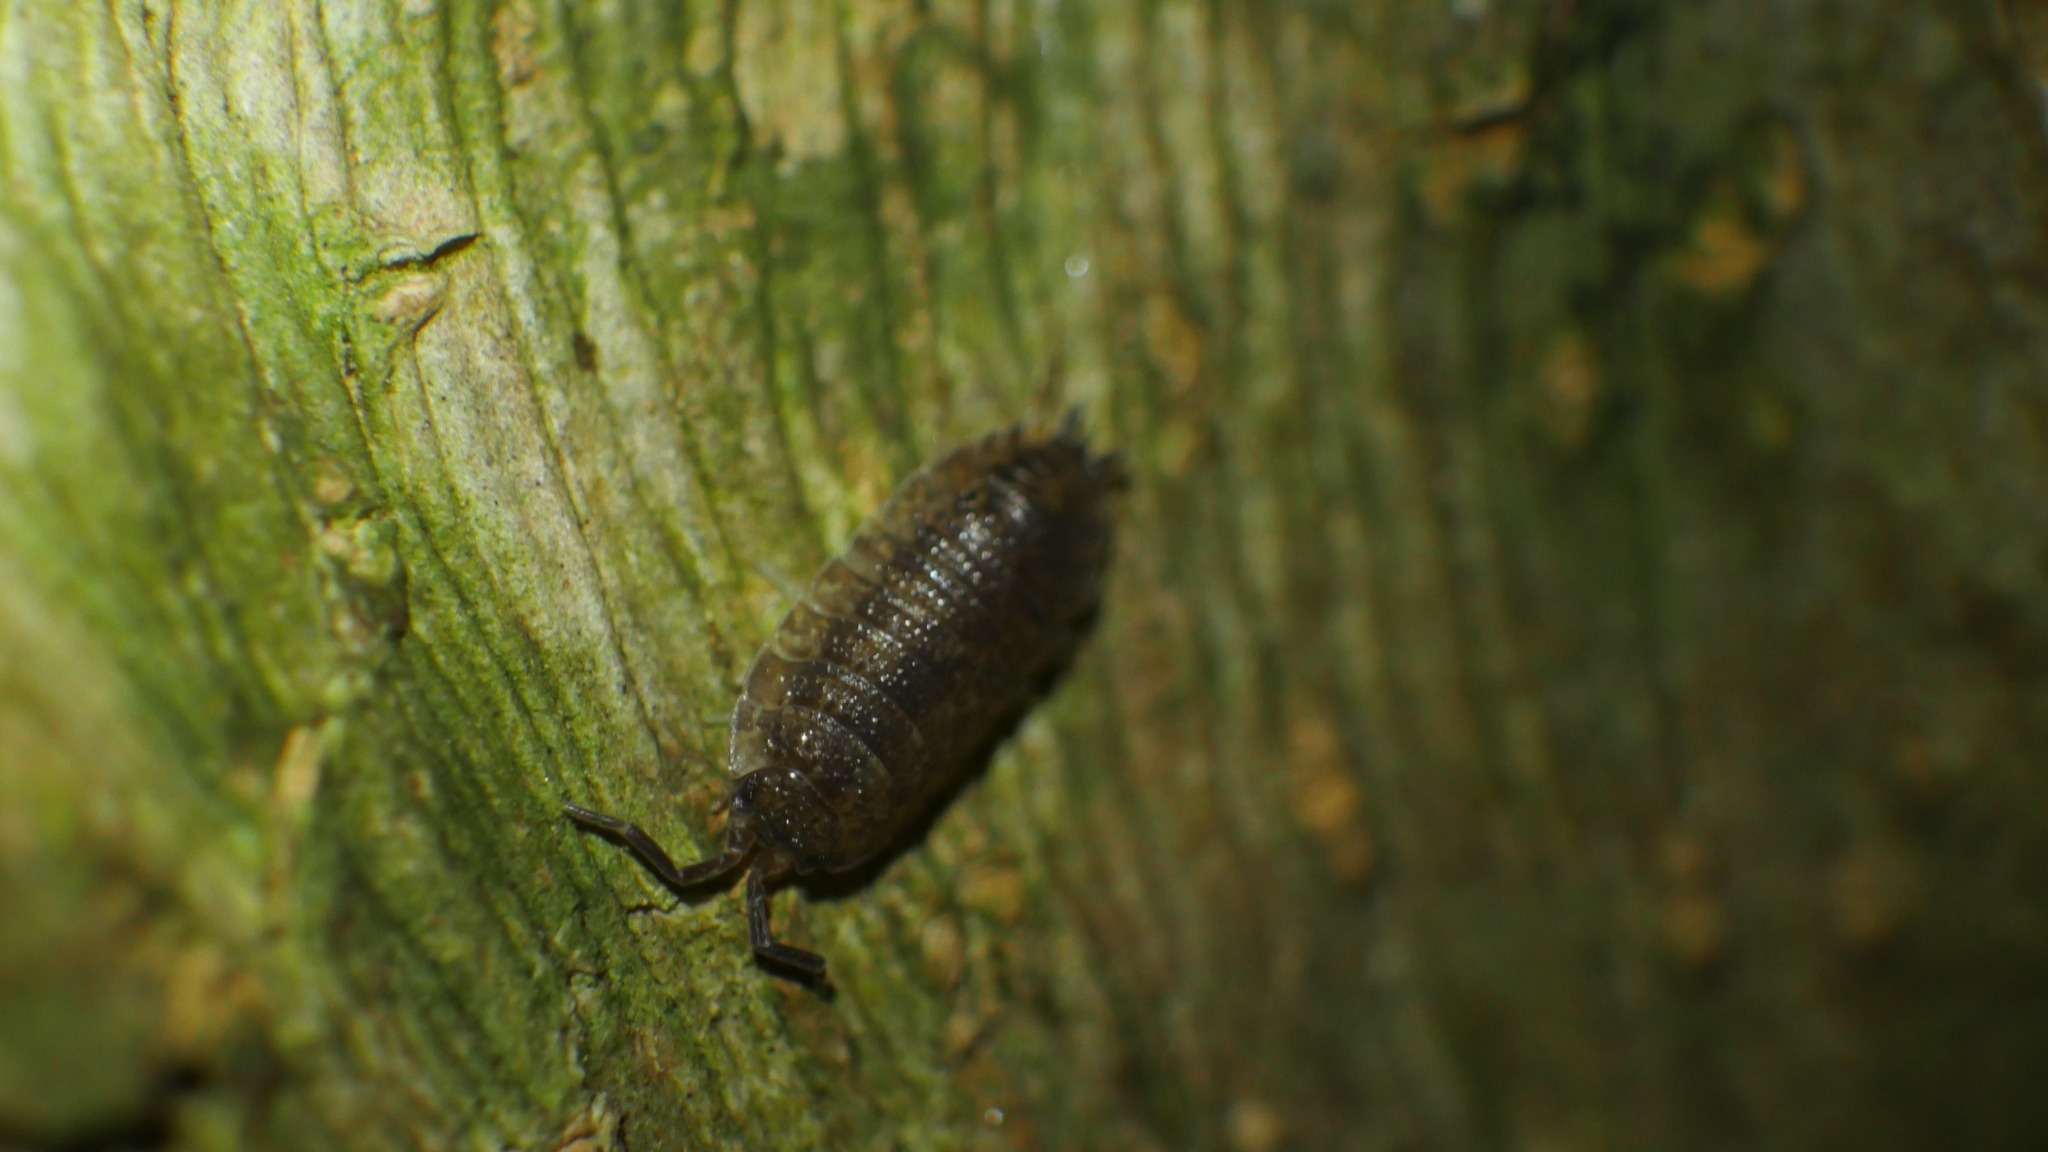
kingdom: Animalia
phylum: Arthropoda
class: Malacostraca
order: Isopoda
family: Porcellionidae
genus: Porcellio
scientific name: Porcellio scaber
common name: Common rough woodlouse
